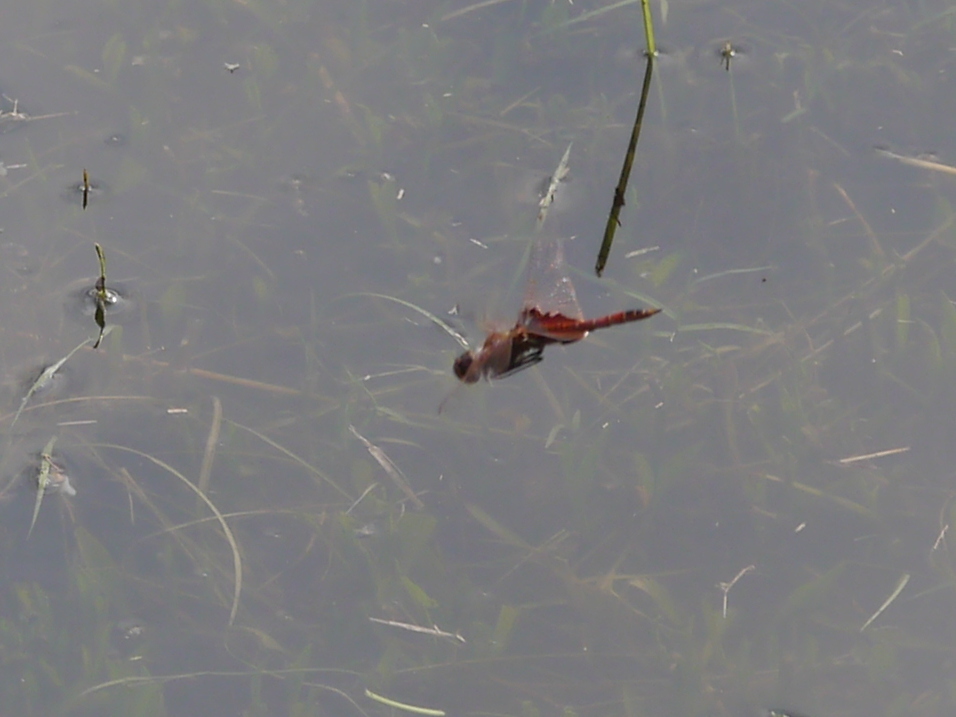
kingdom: Animalia
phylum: Arthropoda
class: Insecta
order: Odonata
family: Libellulidae
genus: Tramea
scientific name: Tramea onusta
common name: Red saddlebags
